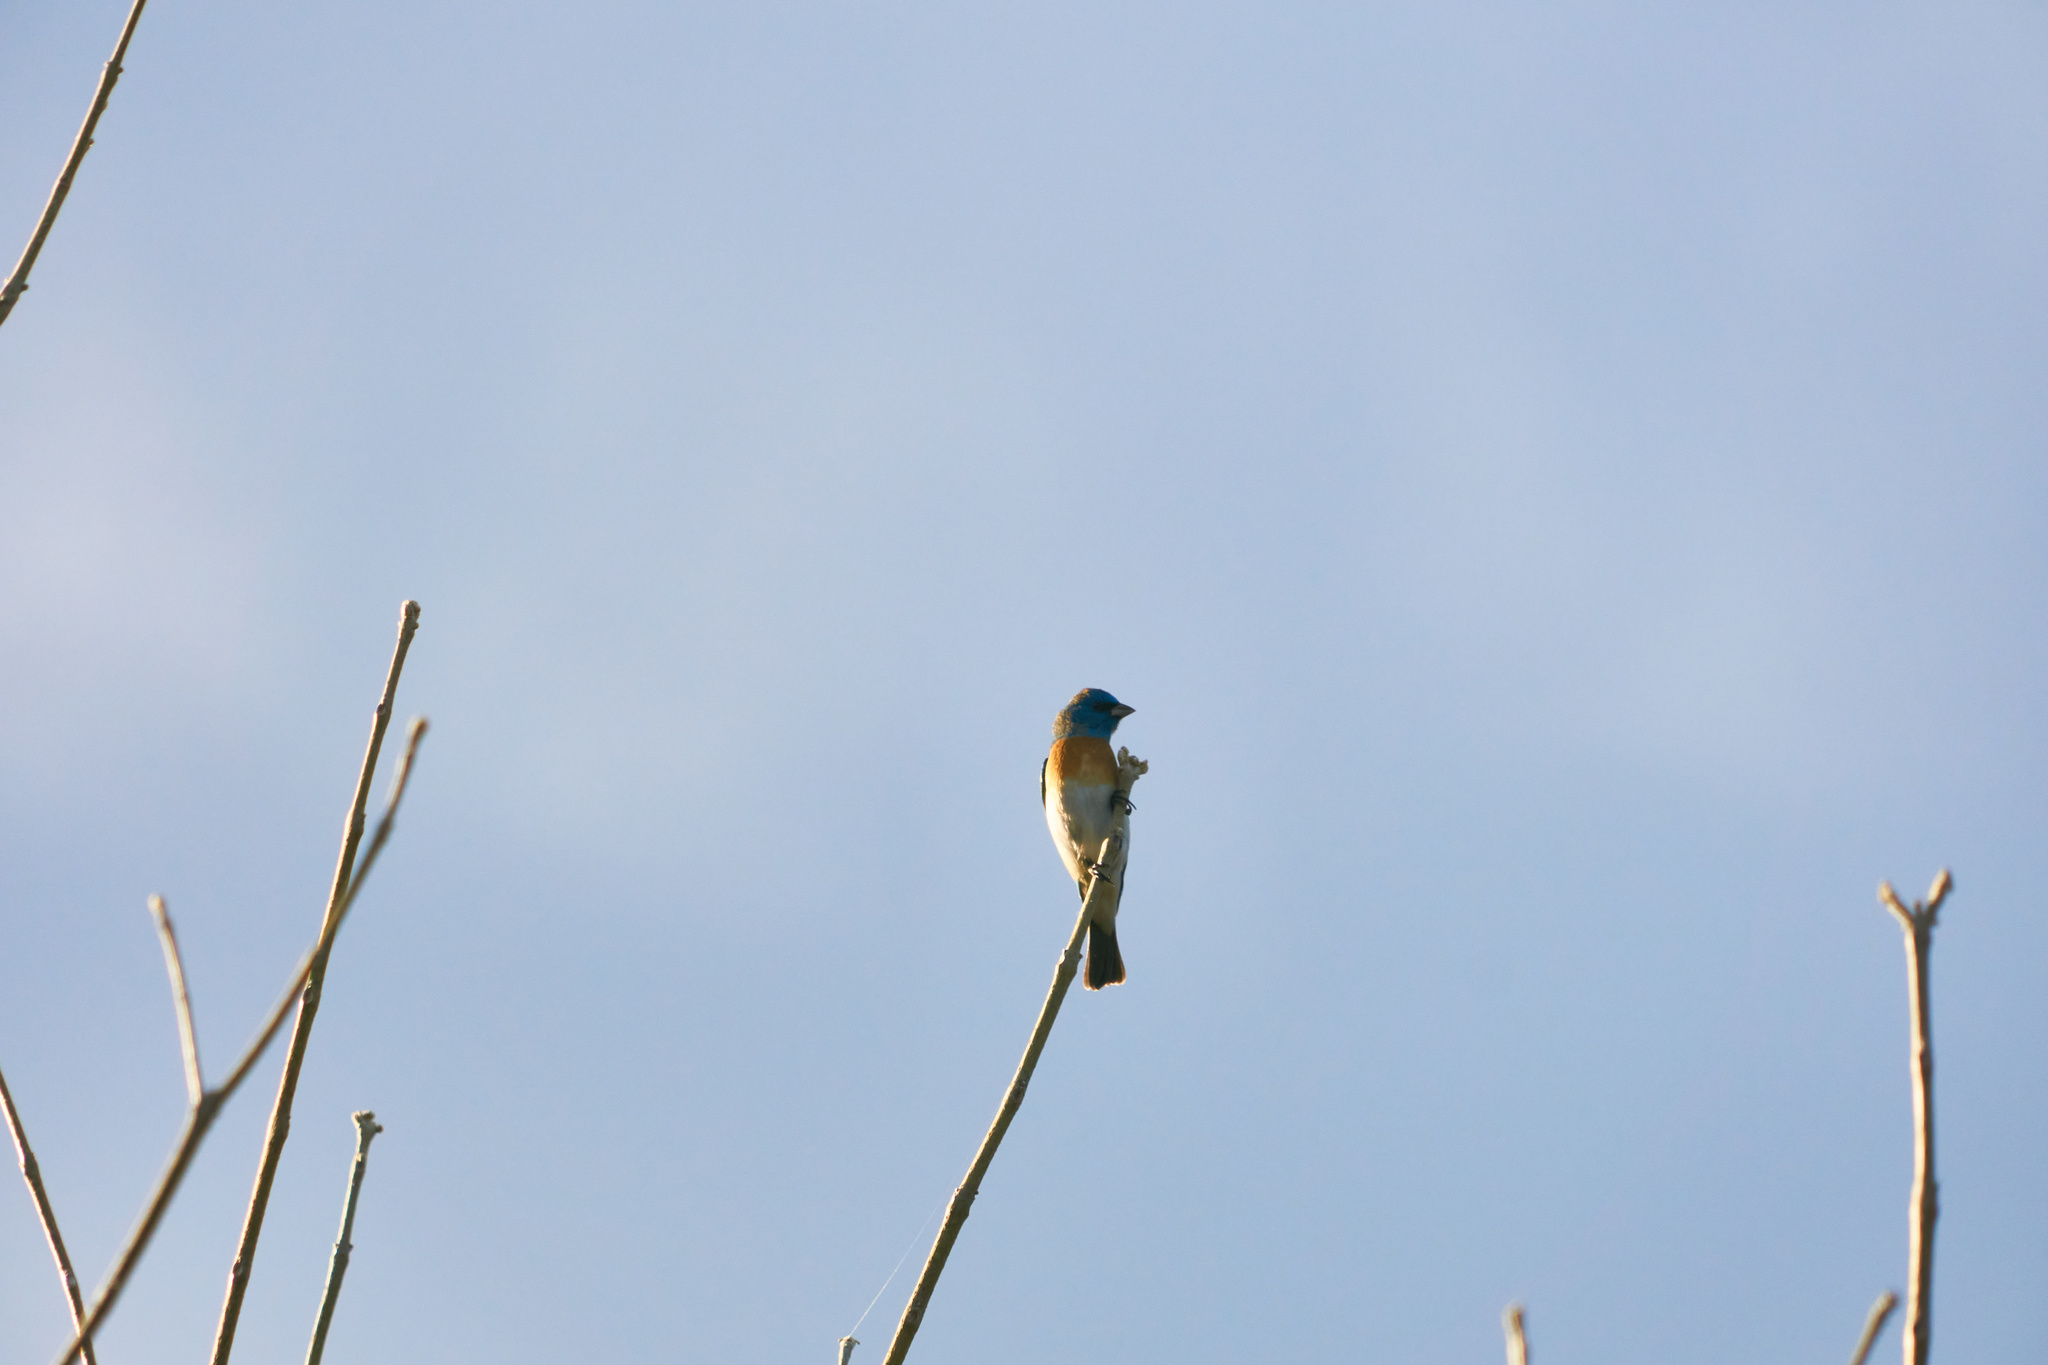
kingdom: Animalia
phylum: Chordata
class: Aves
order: Passeriformes
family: Cardinalidae
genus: Passerina
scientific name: Passerina amoena
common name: Lazuli bunting
